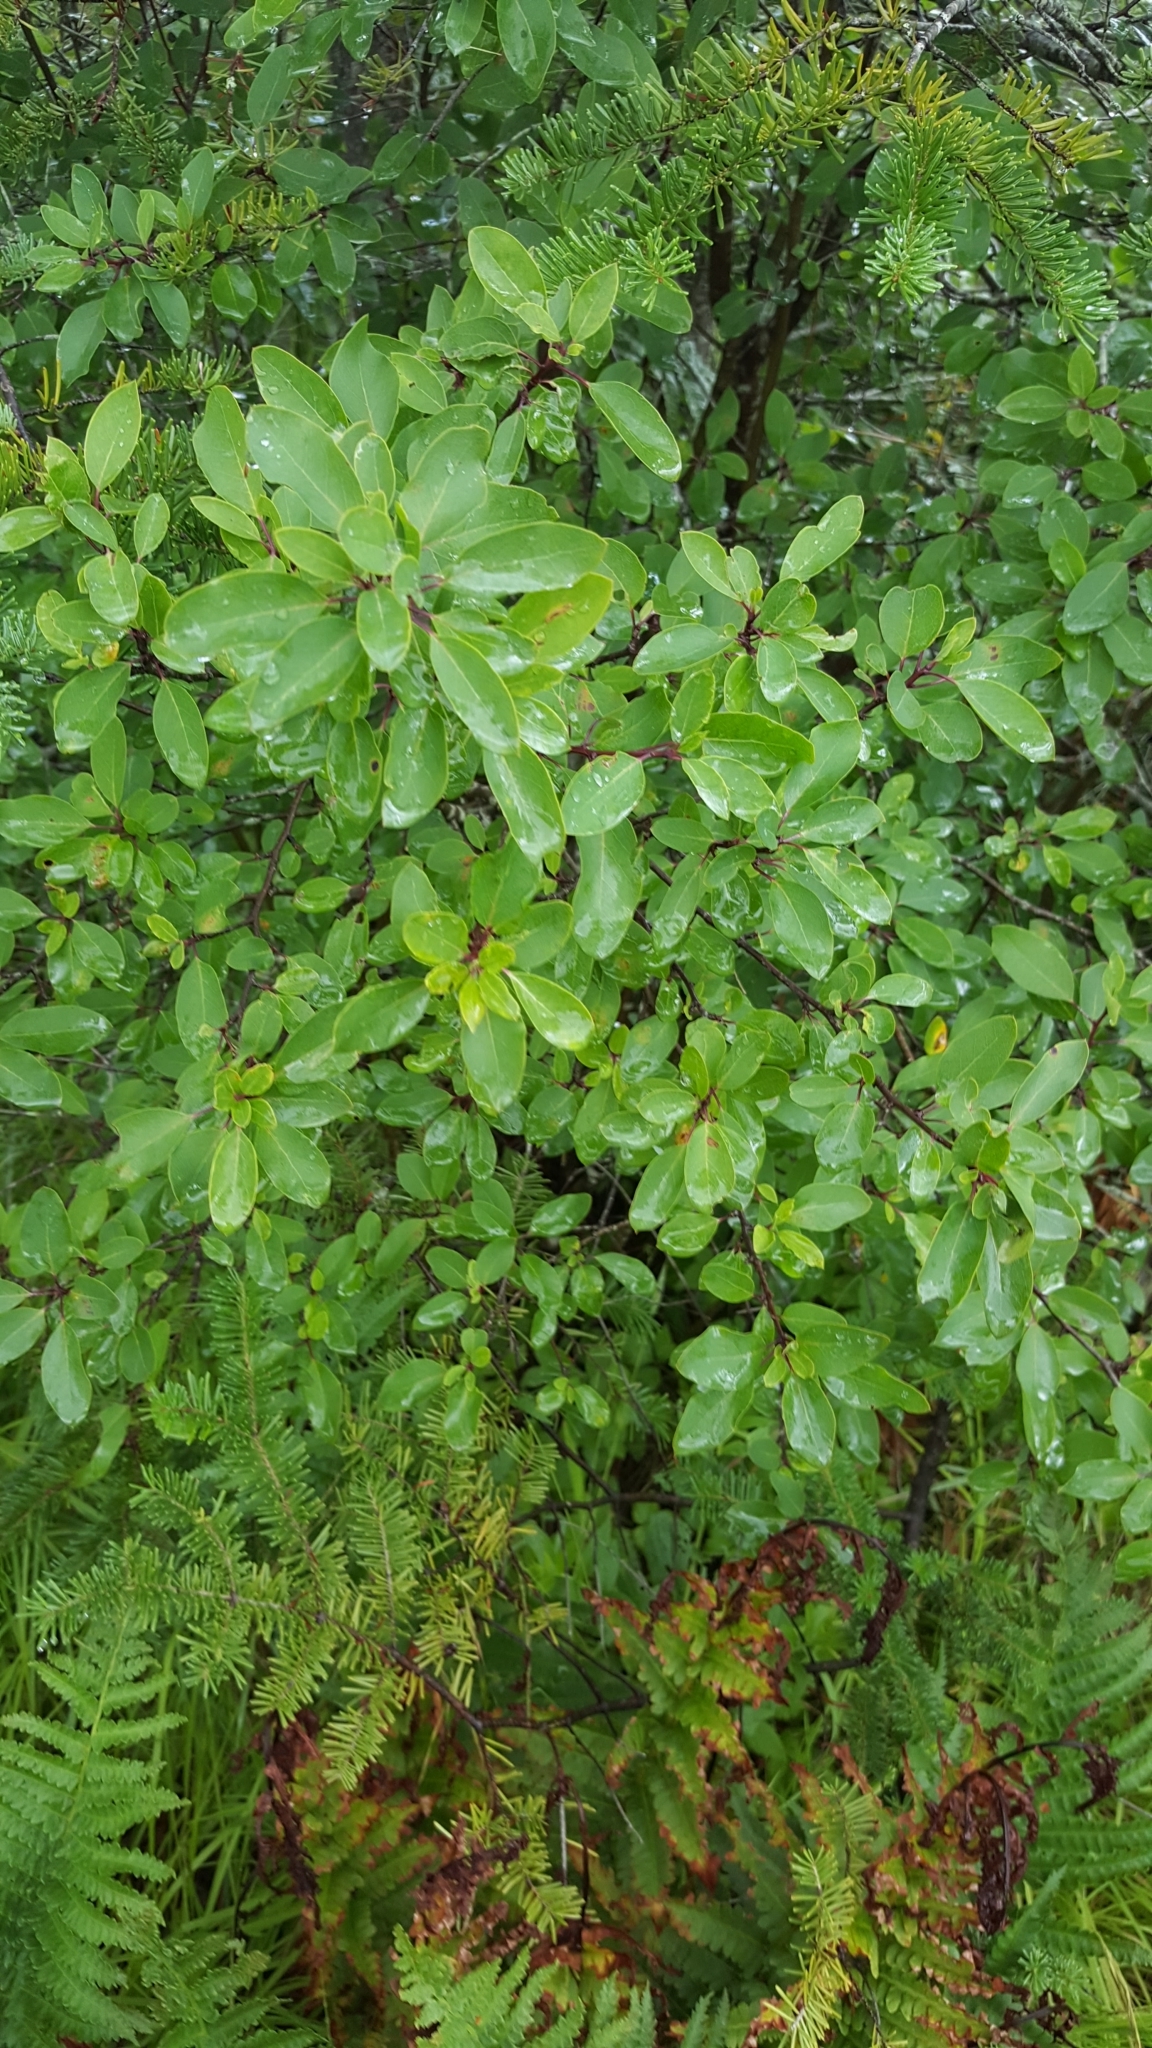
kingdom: Plantae
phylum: Tracheophyta
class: Magnoliopsida
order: Aquifoliales
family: Aquifoliaceae
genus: Ilex
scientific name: Ilex mucronata
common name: Catberry
